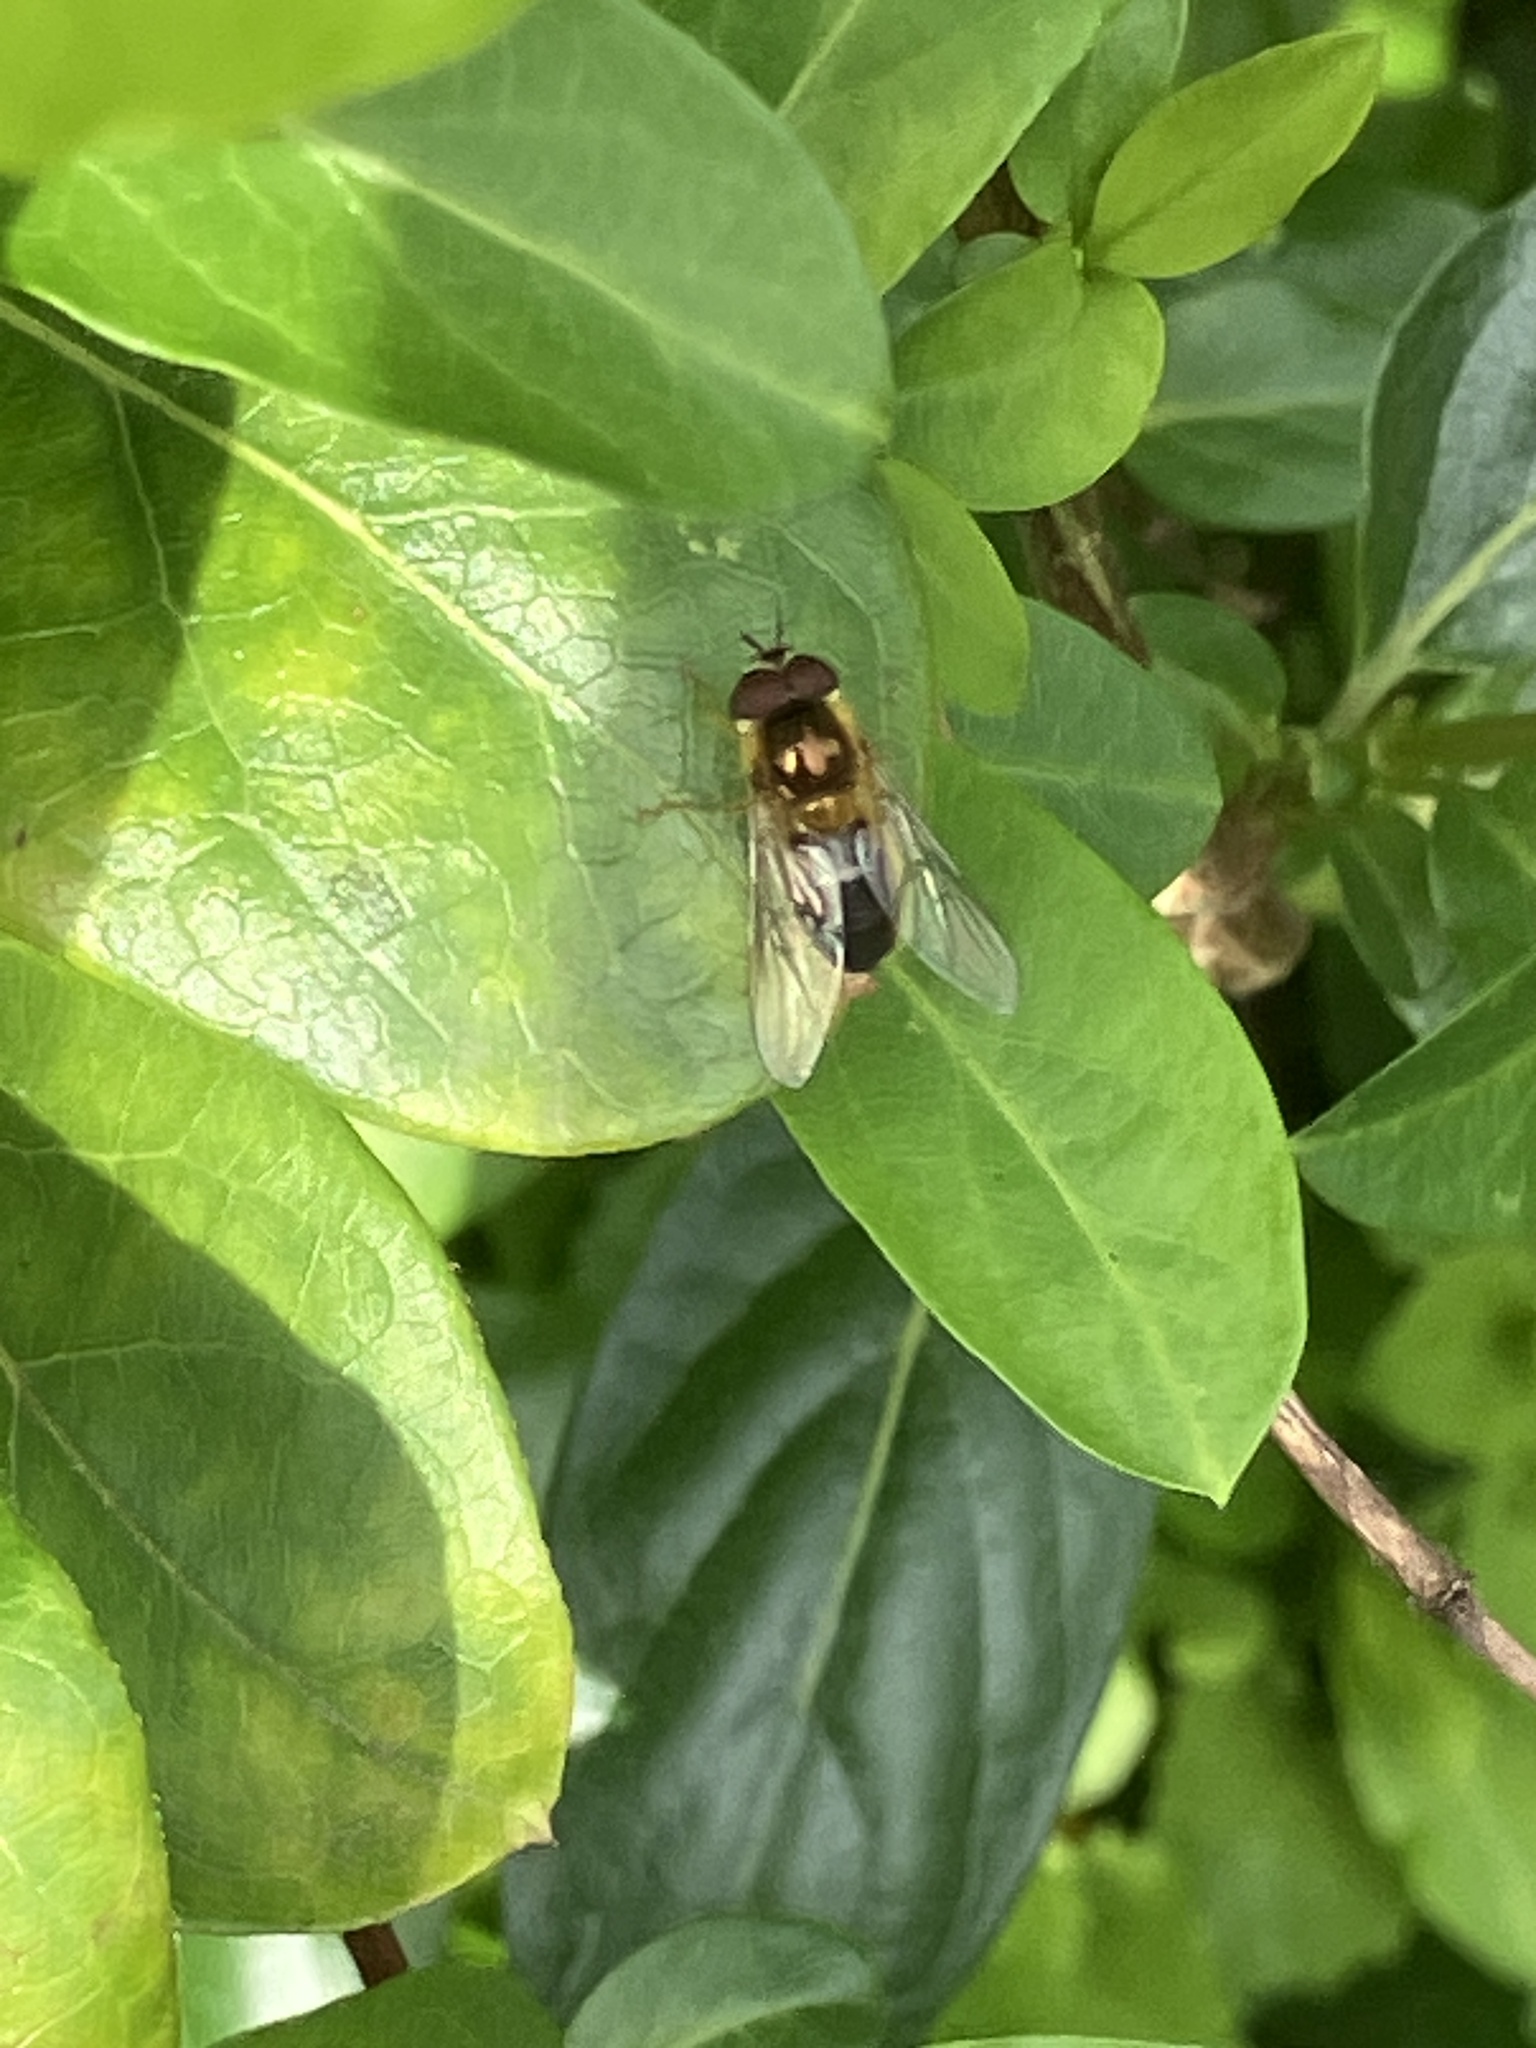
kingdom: Animalia
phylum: Arthropoda
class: Insecta
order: Diptera
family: Syrphidae
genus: Epistrophe
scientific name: Epistrophe eligans
